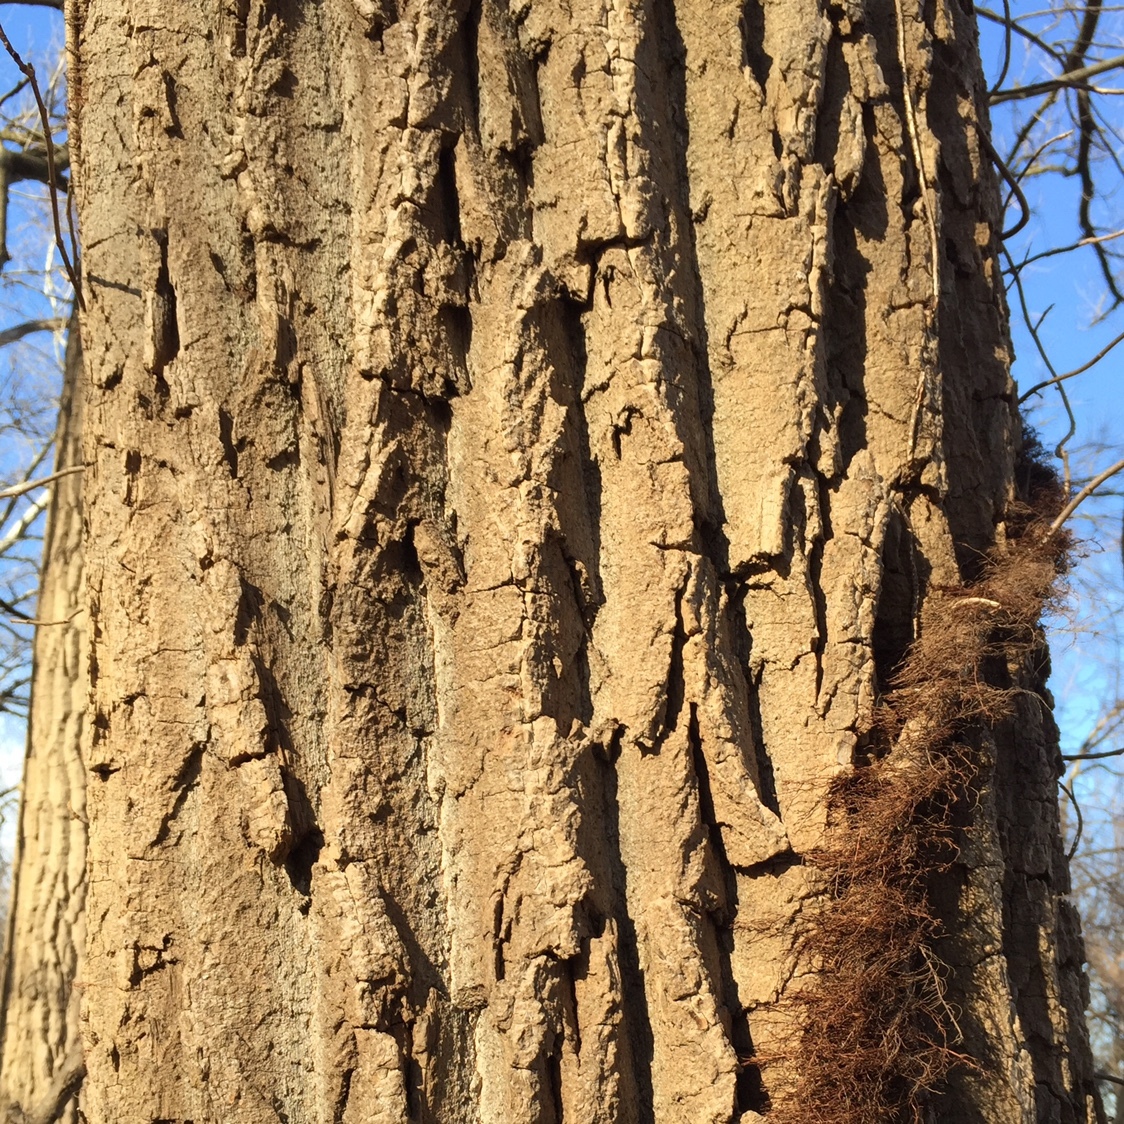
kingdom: Plantae
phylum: Tracheophyta
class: Magnoliopsida
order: Malpighiales
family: Salicaceae
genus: Populus
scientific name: Populus deltoides
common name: Eastern cottonwood
